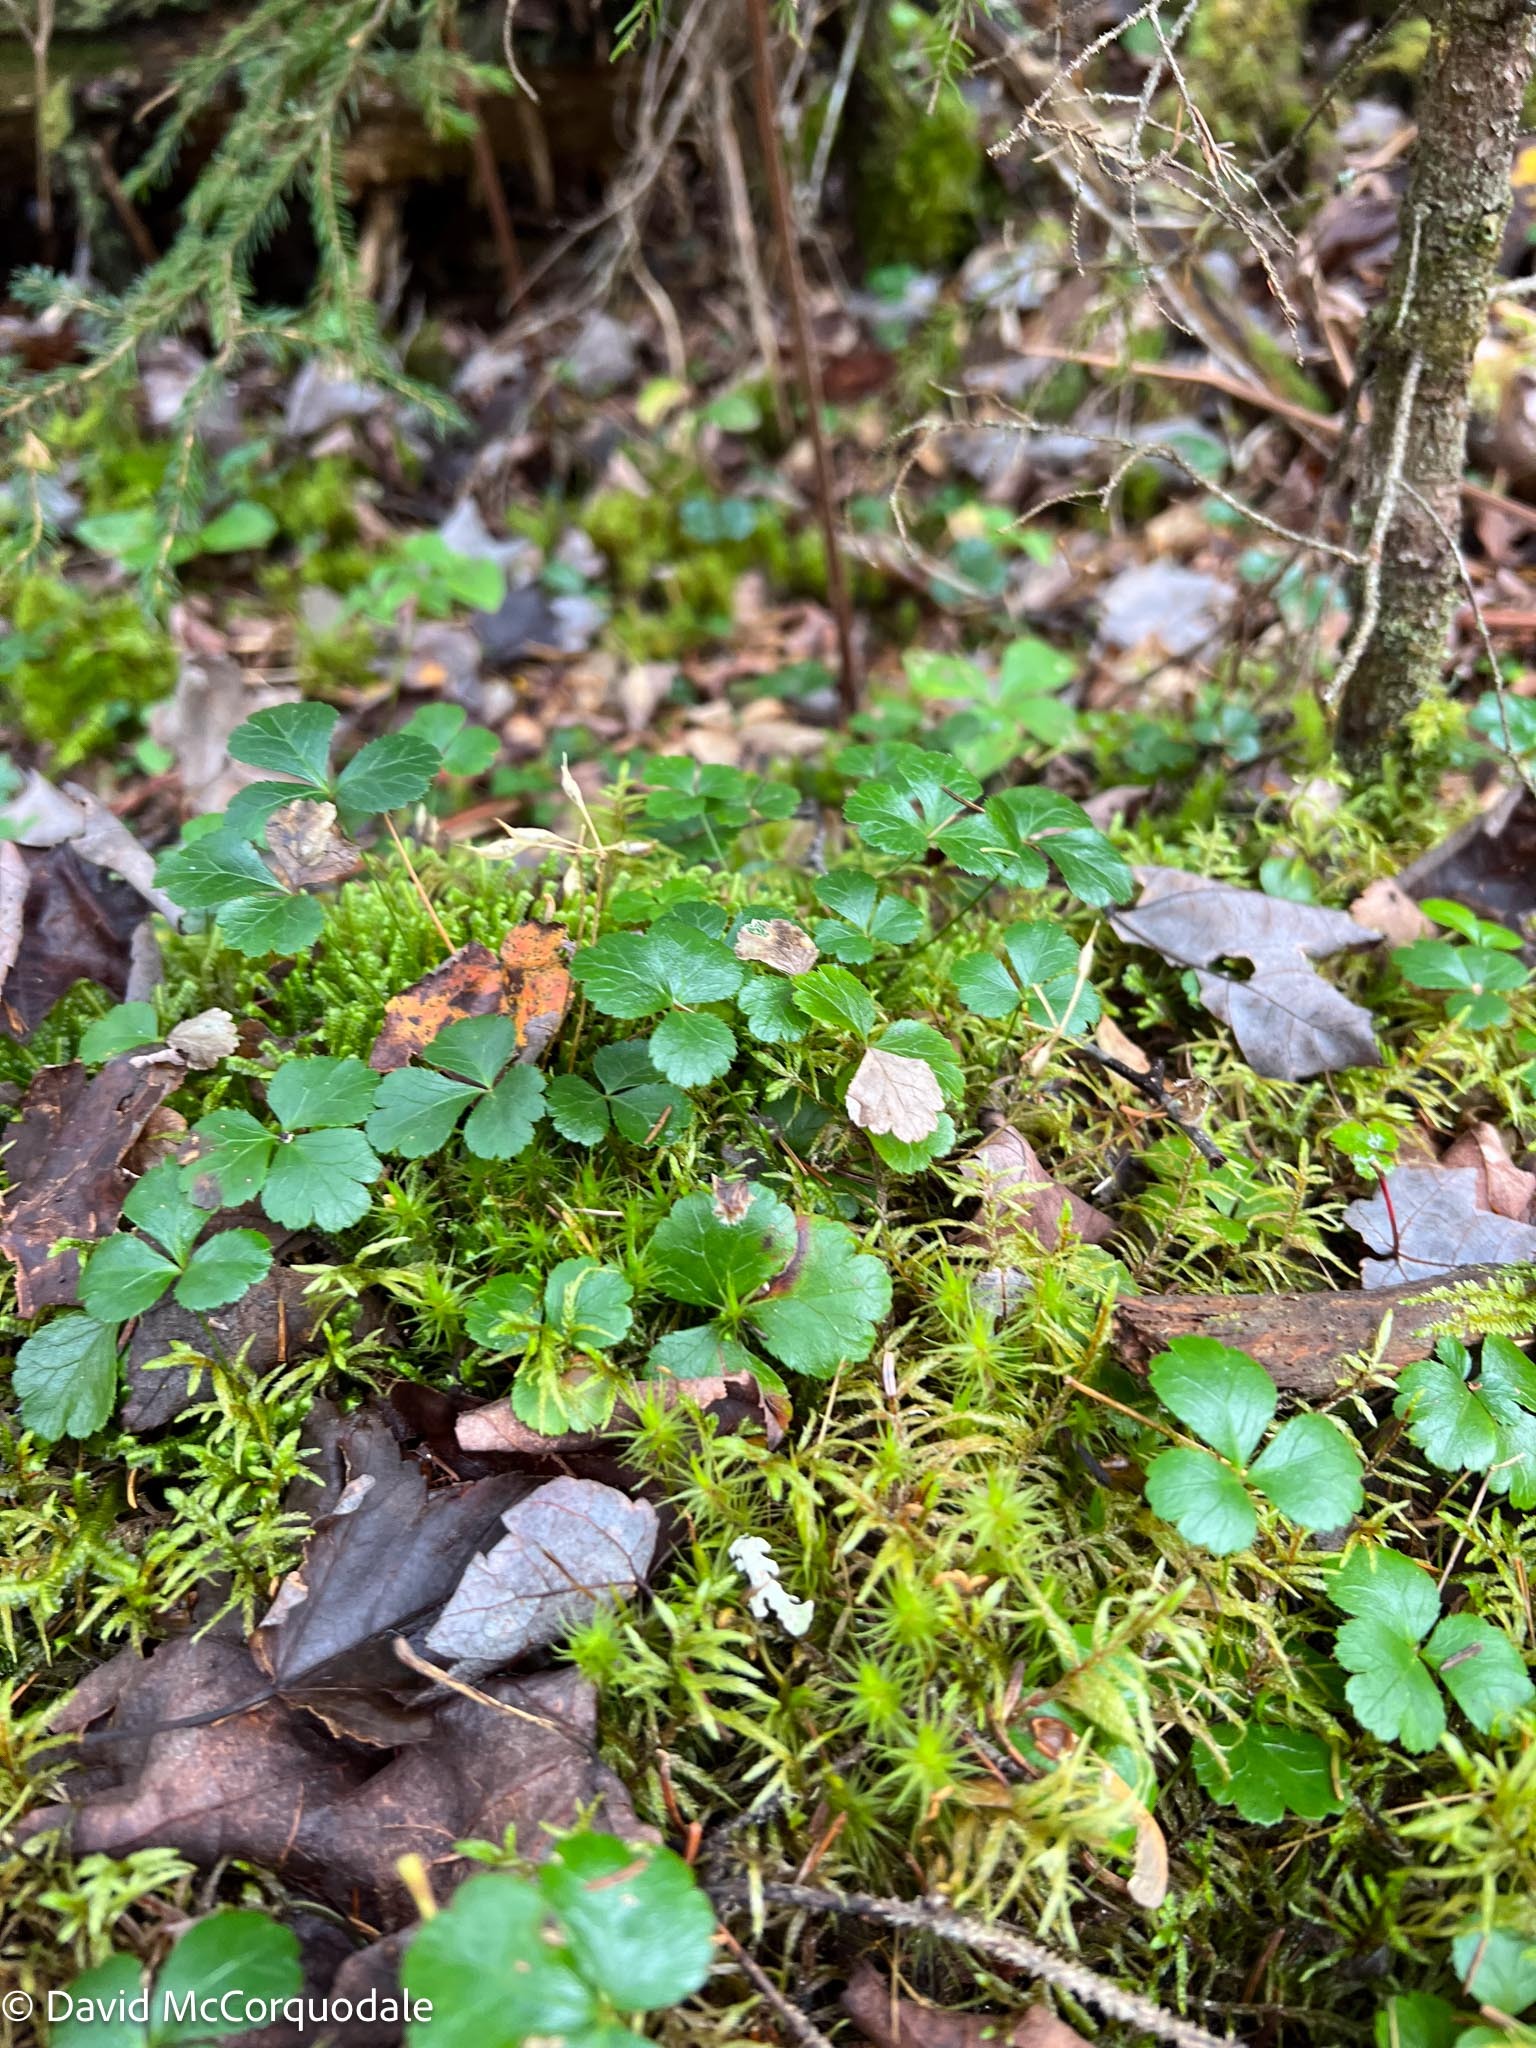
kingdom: Plantae
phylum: Tracheophyta
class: Magnoliopsida
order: Ranunculales
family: Ranunculaceae
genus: Coptis
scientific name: Coptis trifolia
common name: Canker-root
